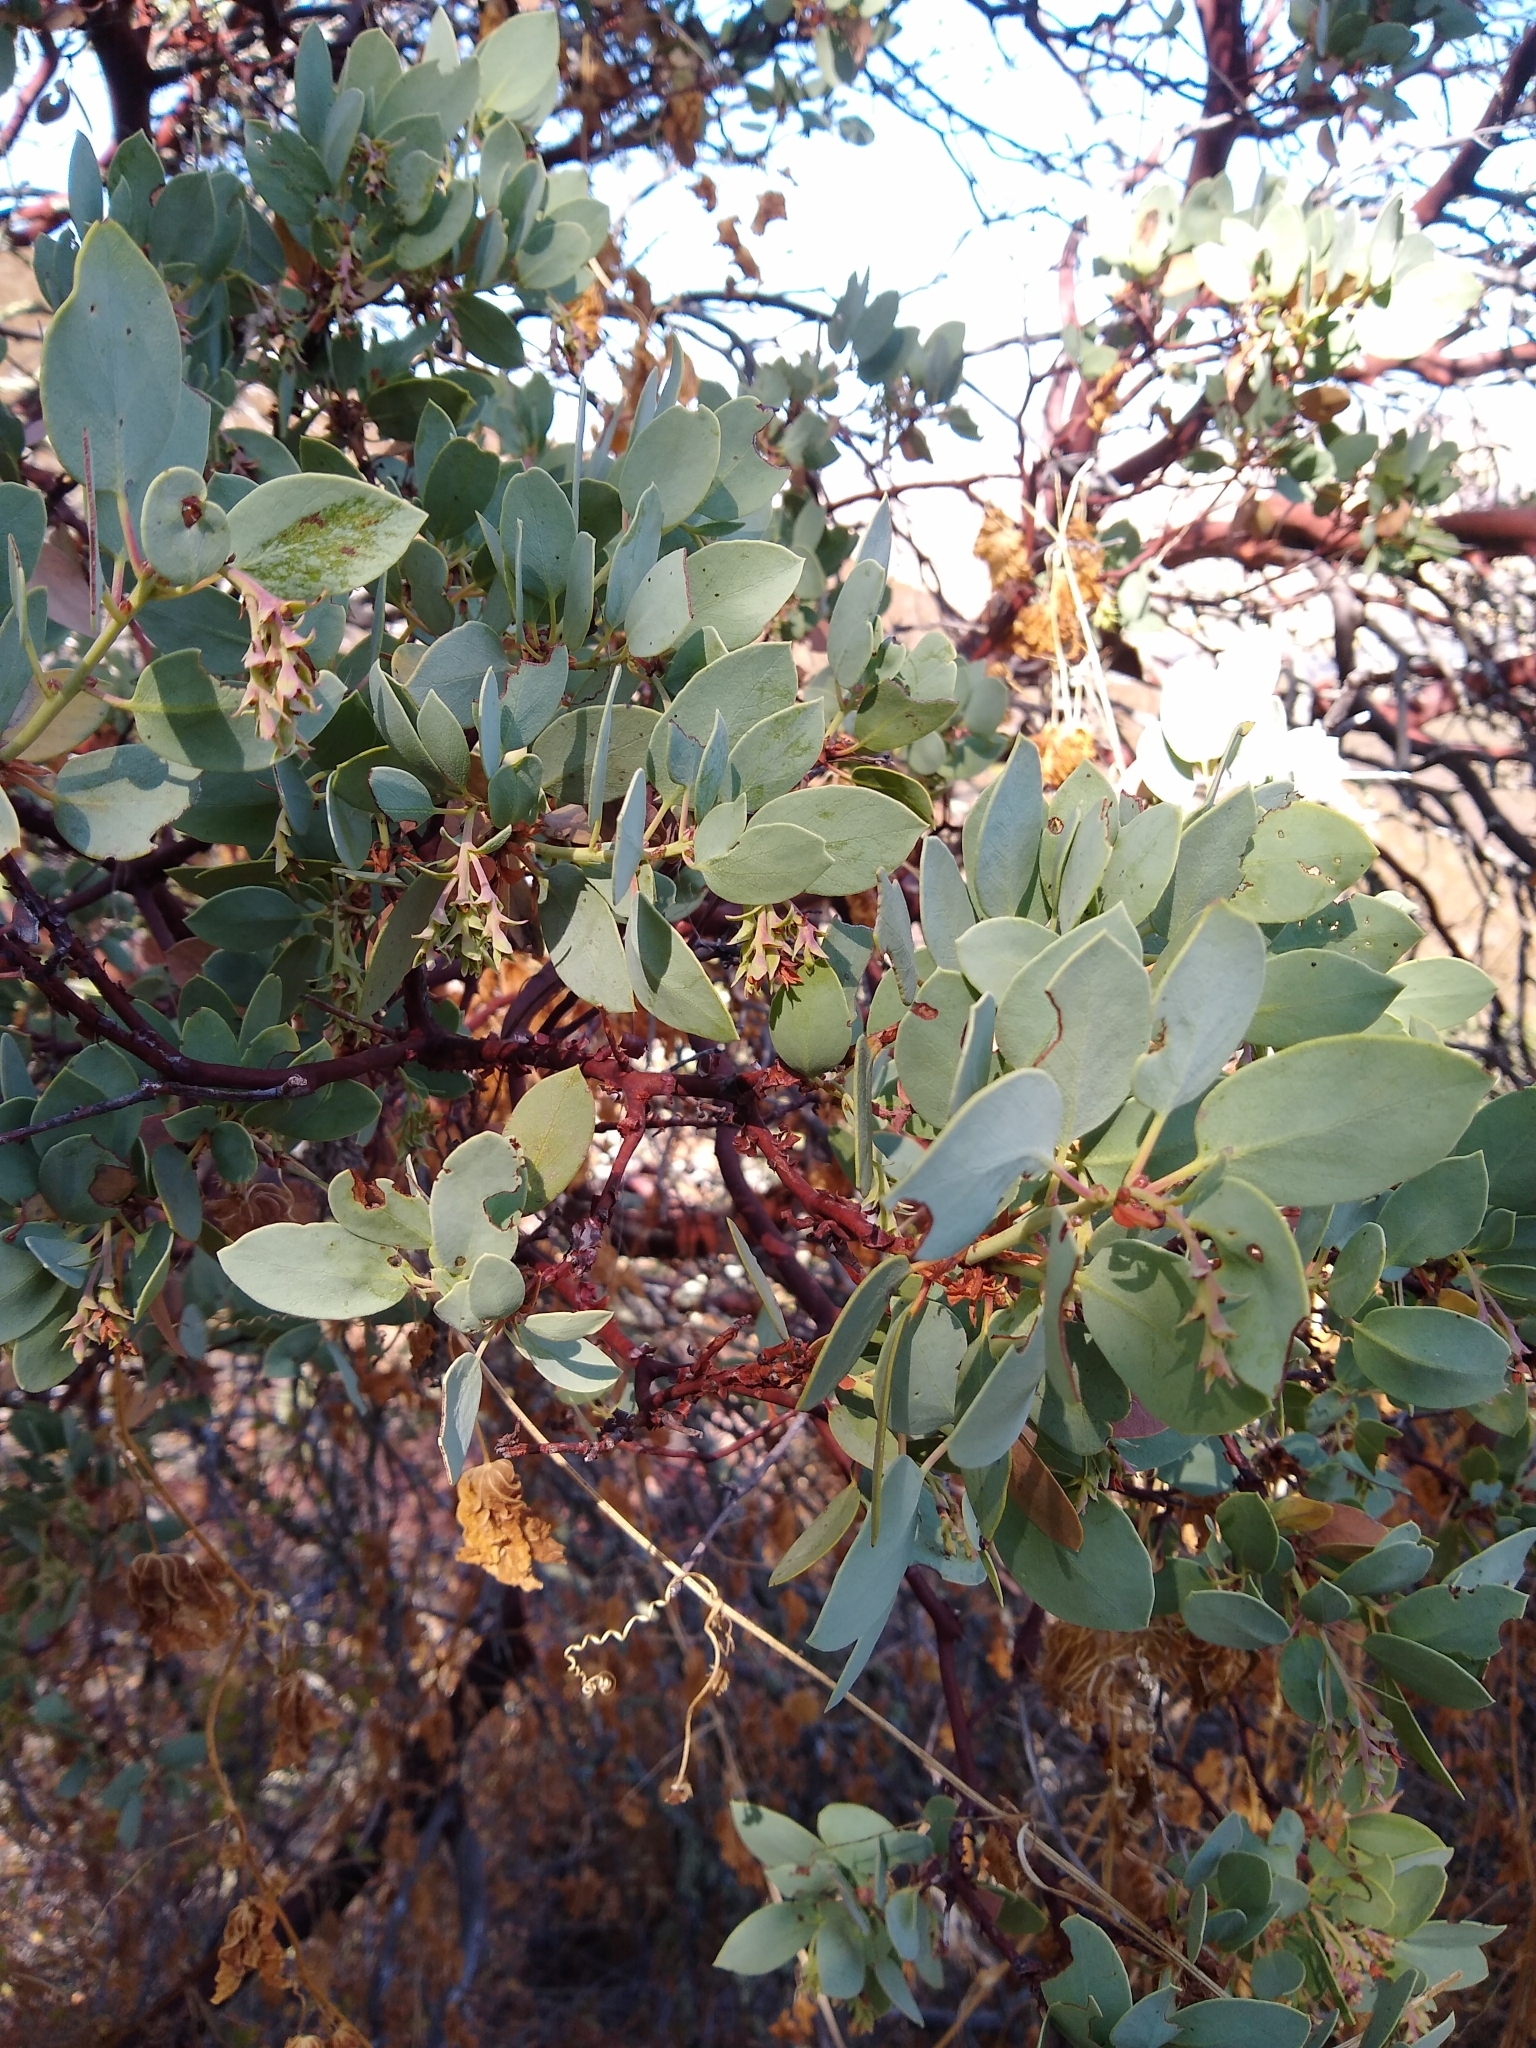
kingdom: Plantae
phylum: Tracheophyta
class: Magnoliopsida
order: Ericales
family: Ericaceae
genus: Arctostaphylos
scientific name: Arctostaphylos glauca
